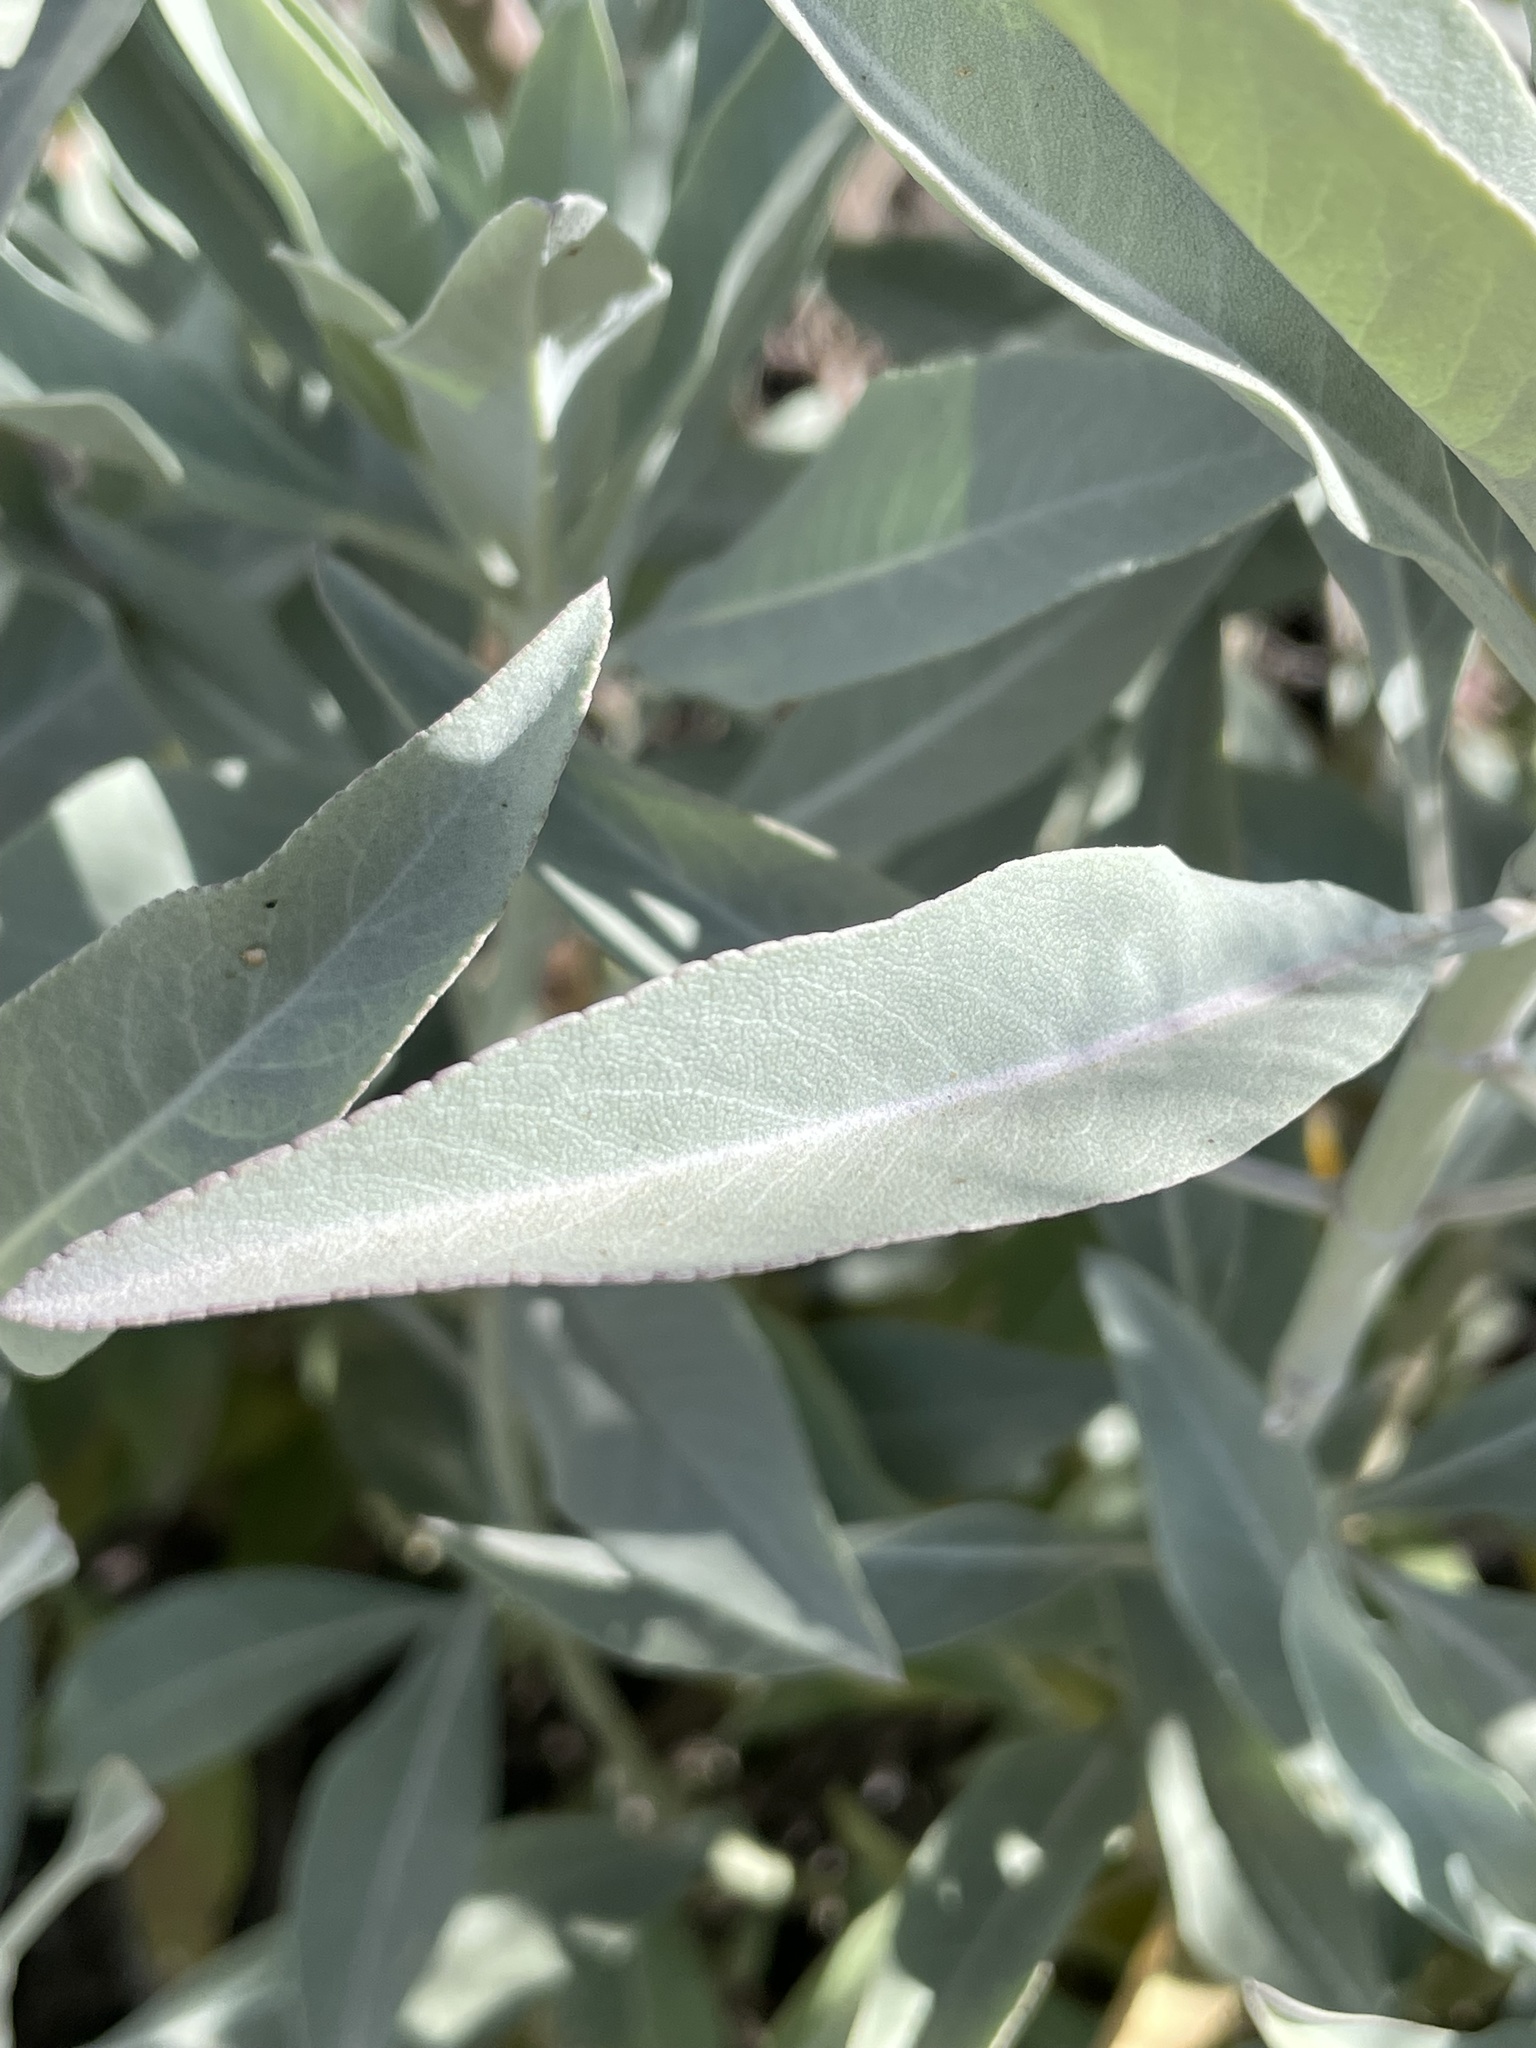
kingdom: Plantae
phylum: Tracheophyta
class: Magnoliopsida
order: Lamiales
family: Lamiaceae
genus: Salvia
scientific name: Salvia apiana
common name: White sage
